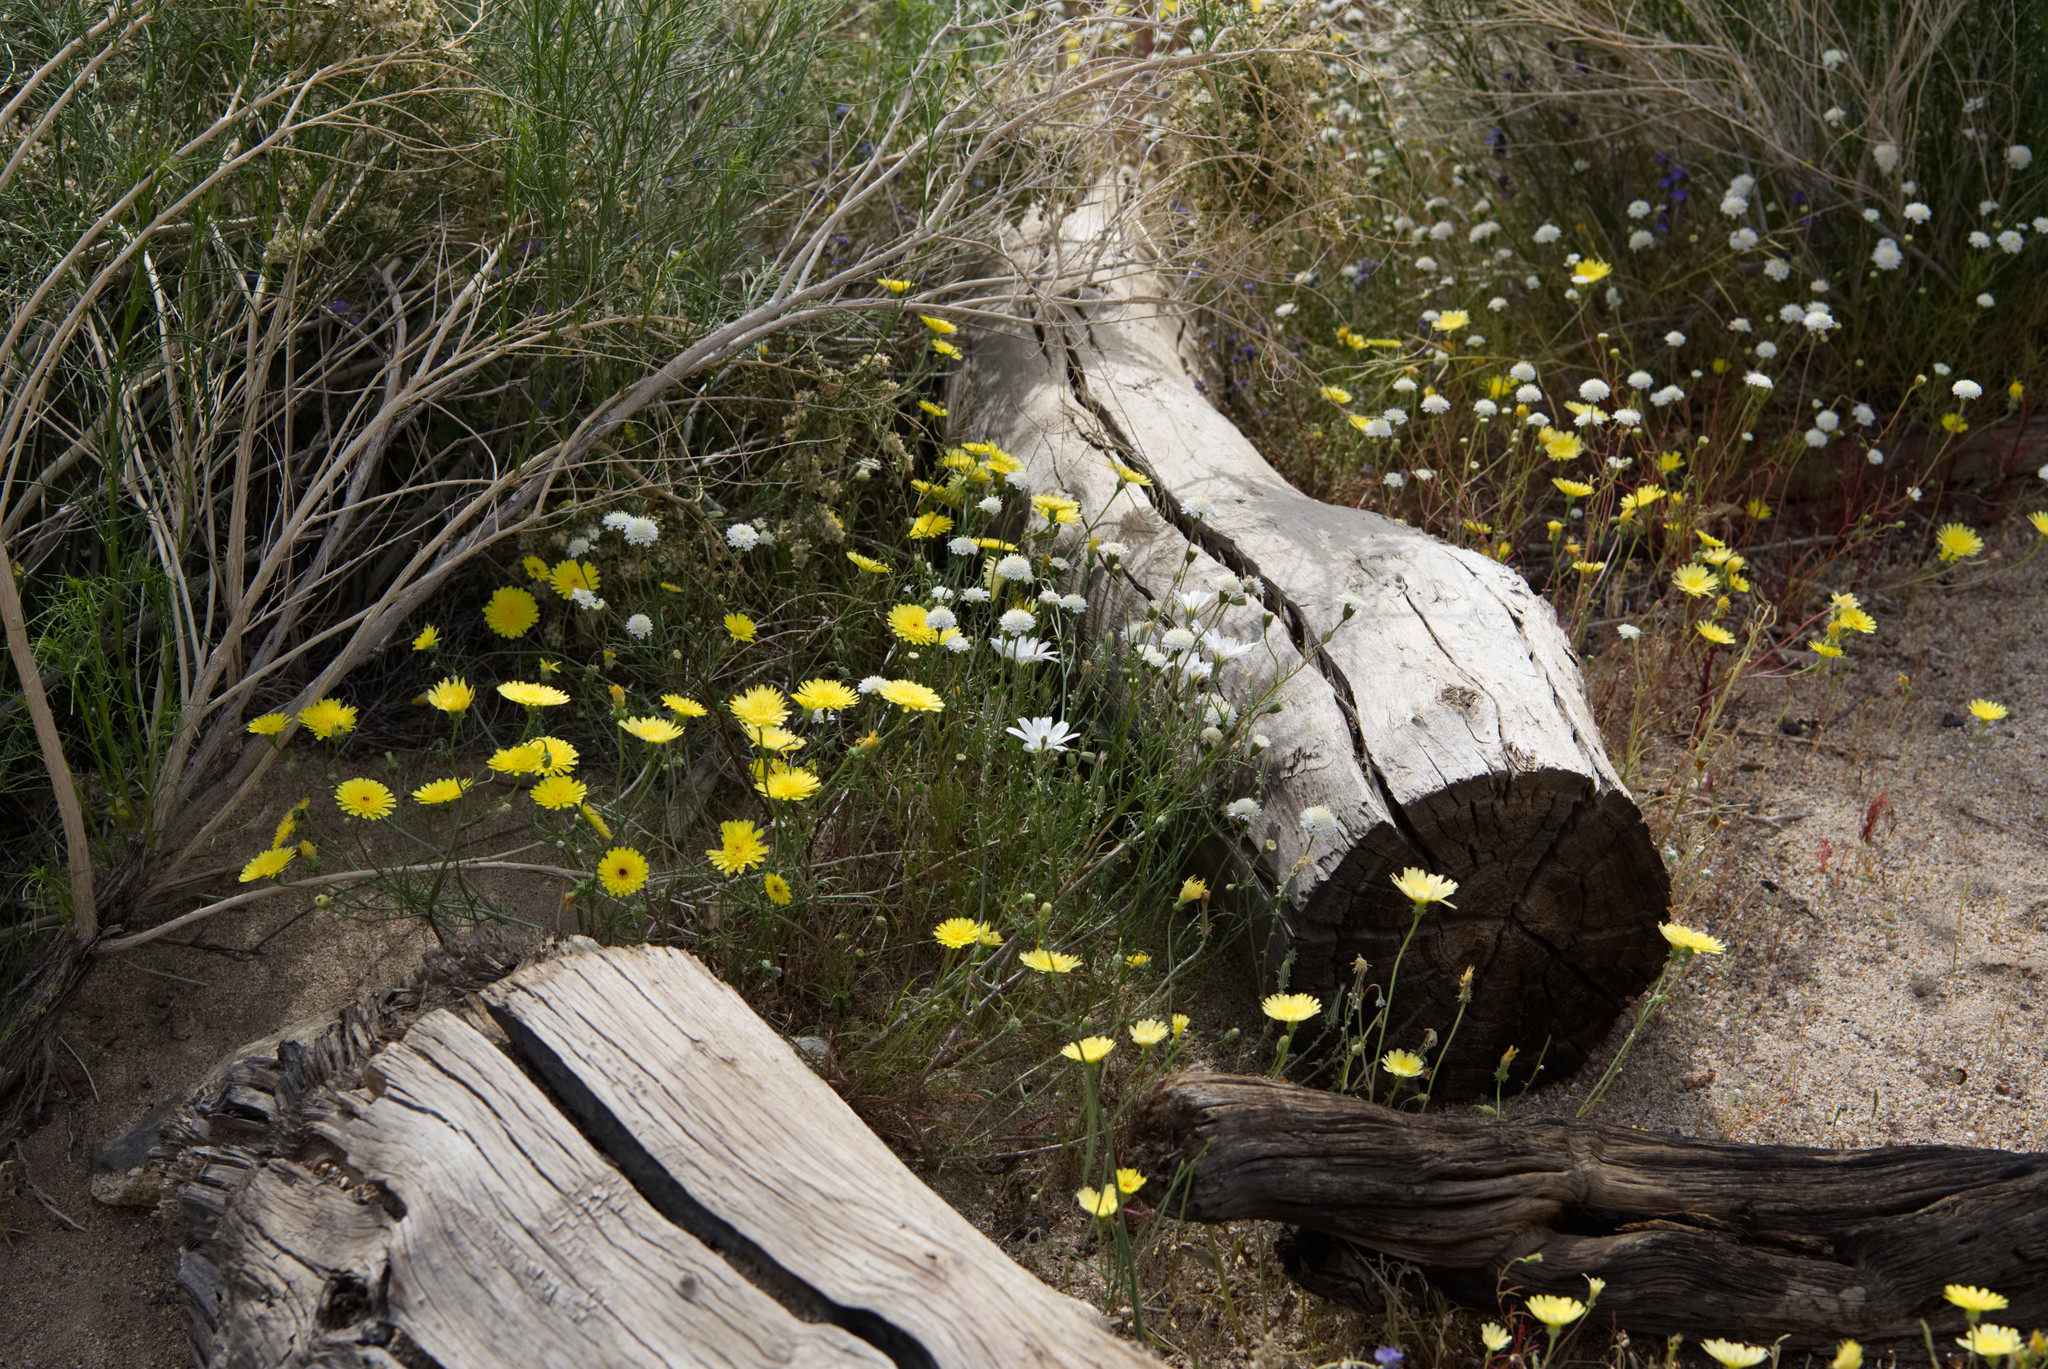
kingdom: Plantae
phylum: Tracheophyta
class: Magnoliopsida
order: Asterales
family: Asteraceae
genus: Malacothrix
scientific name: Malacothrix glabrata
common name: Smooth desert-dandelion
